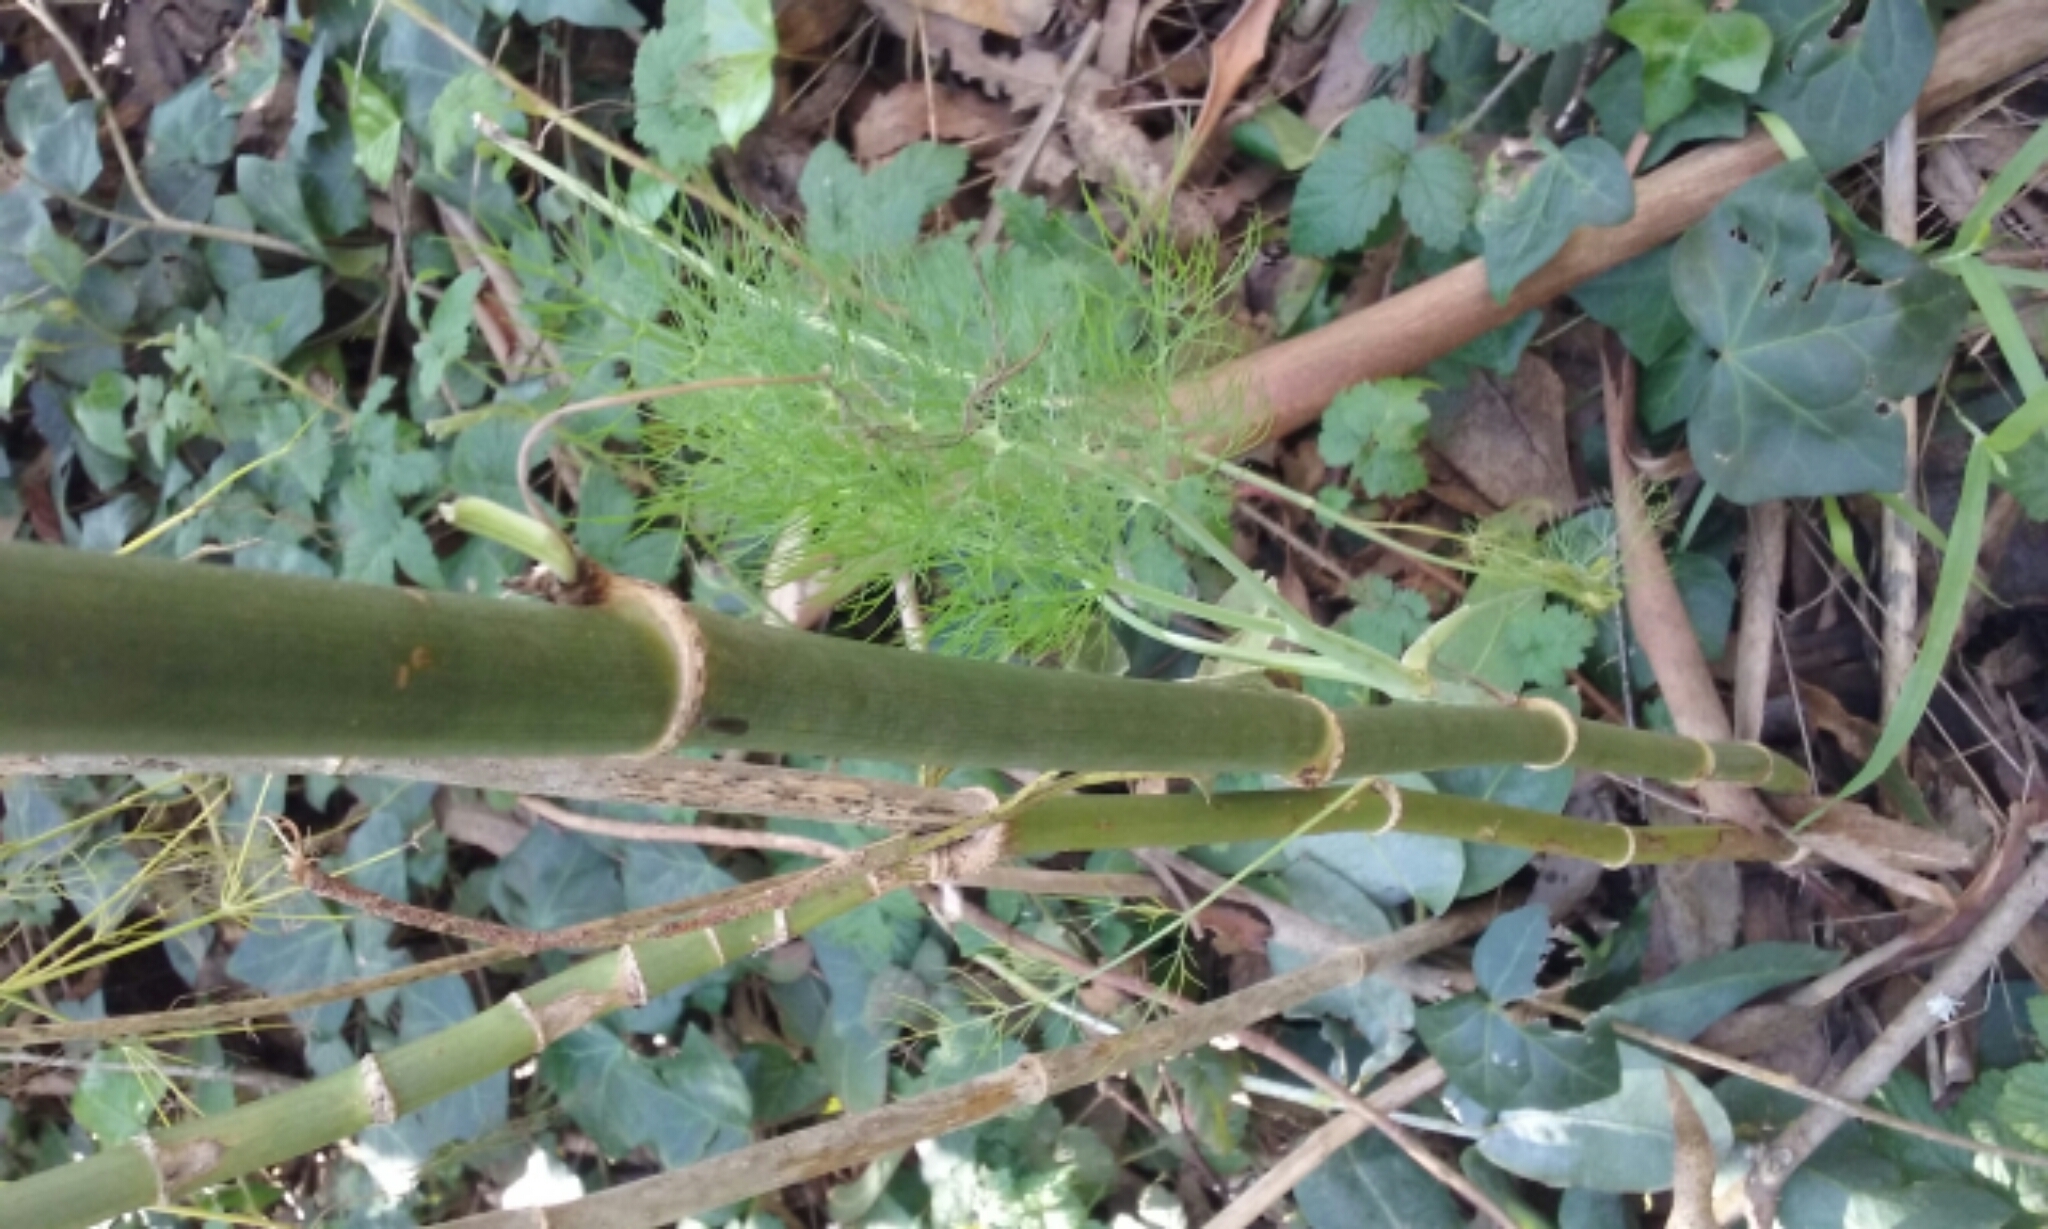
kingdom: Plantae
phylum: Tracheophyta
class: Magnoliopsida
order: Apiales
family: Apiaceae
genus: Foeniculum
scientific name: Foeniculum vulgare
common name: Fennel
